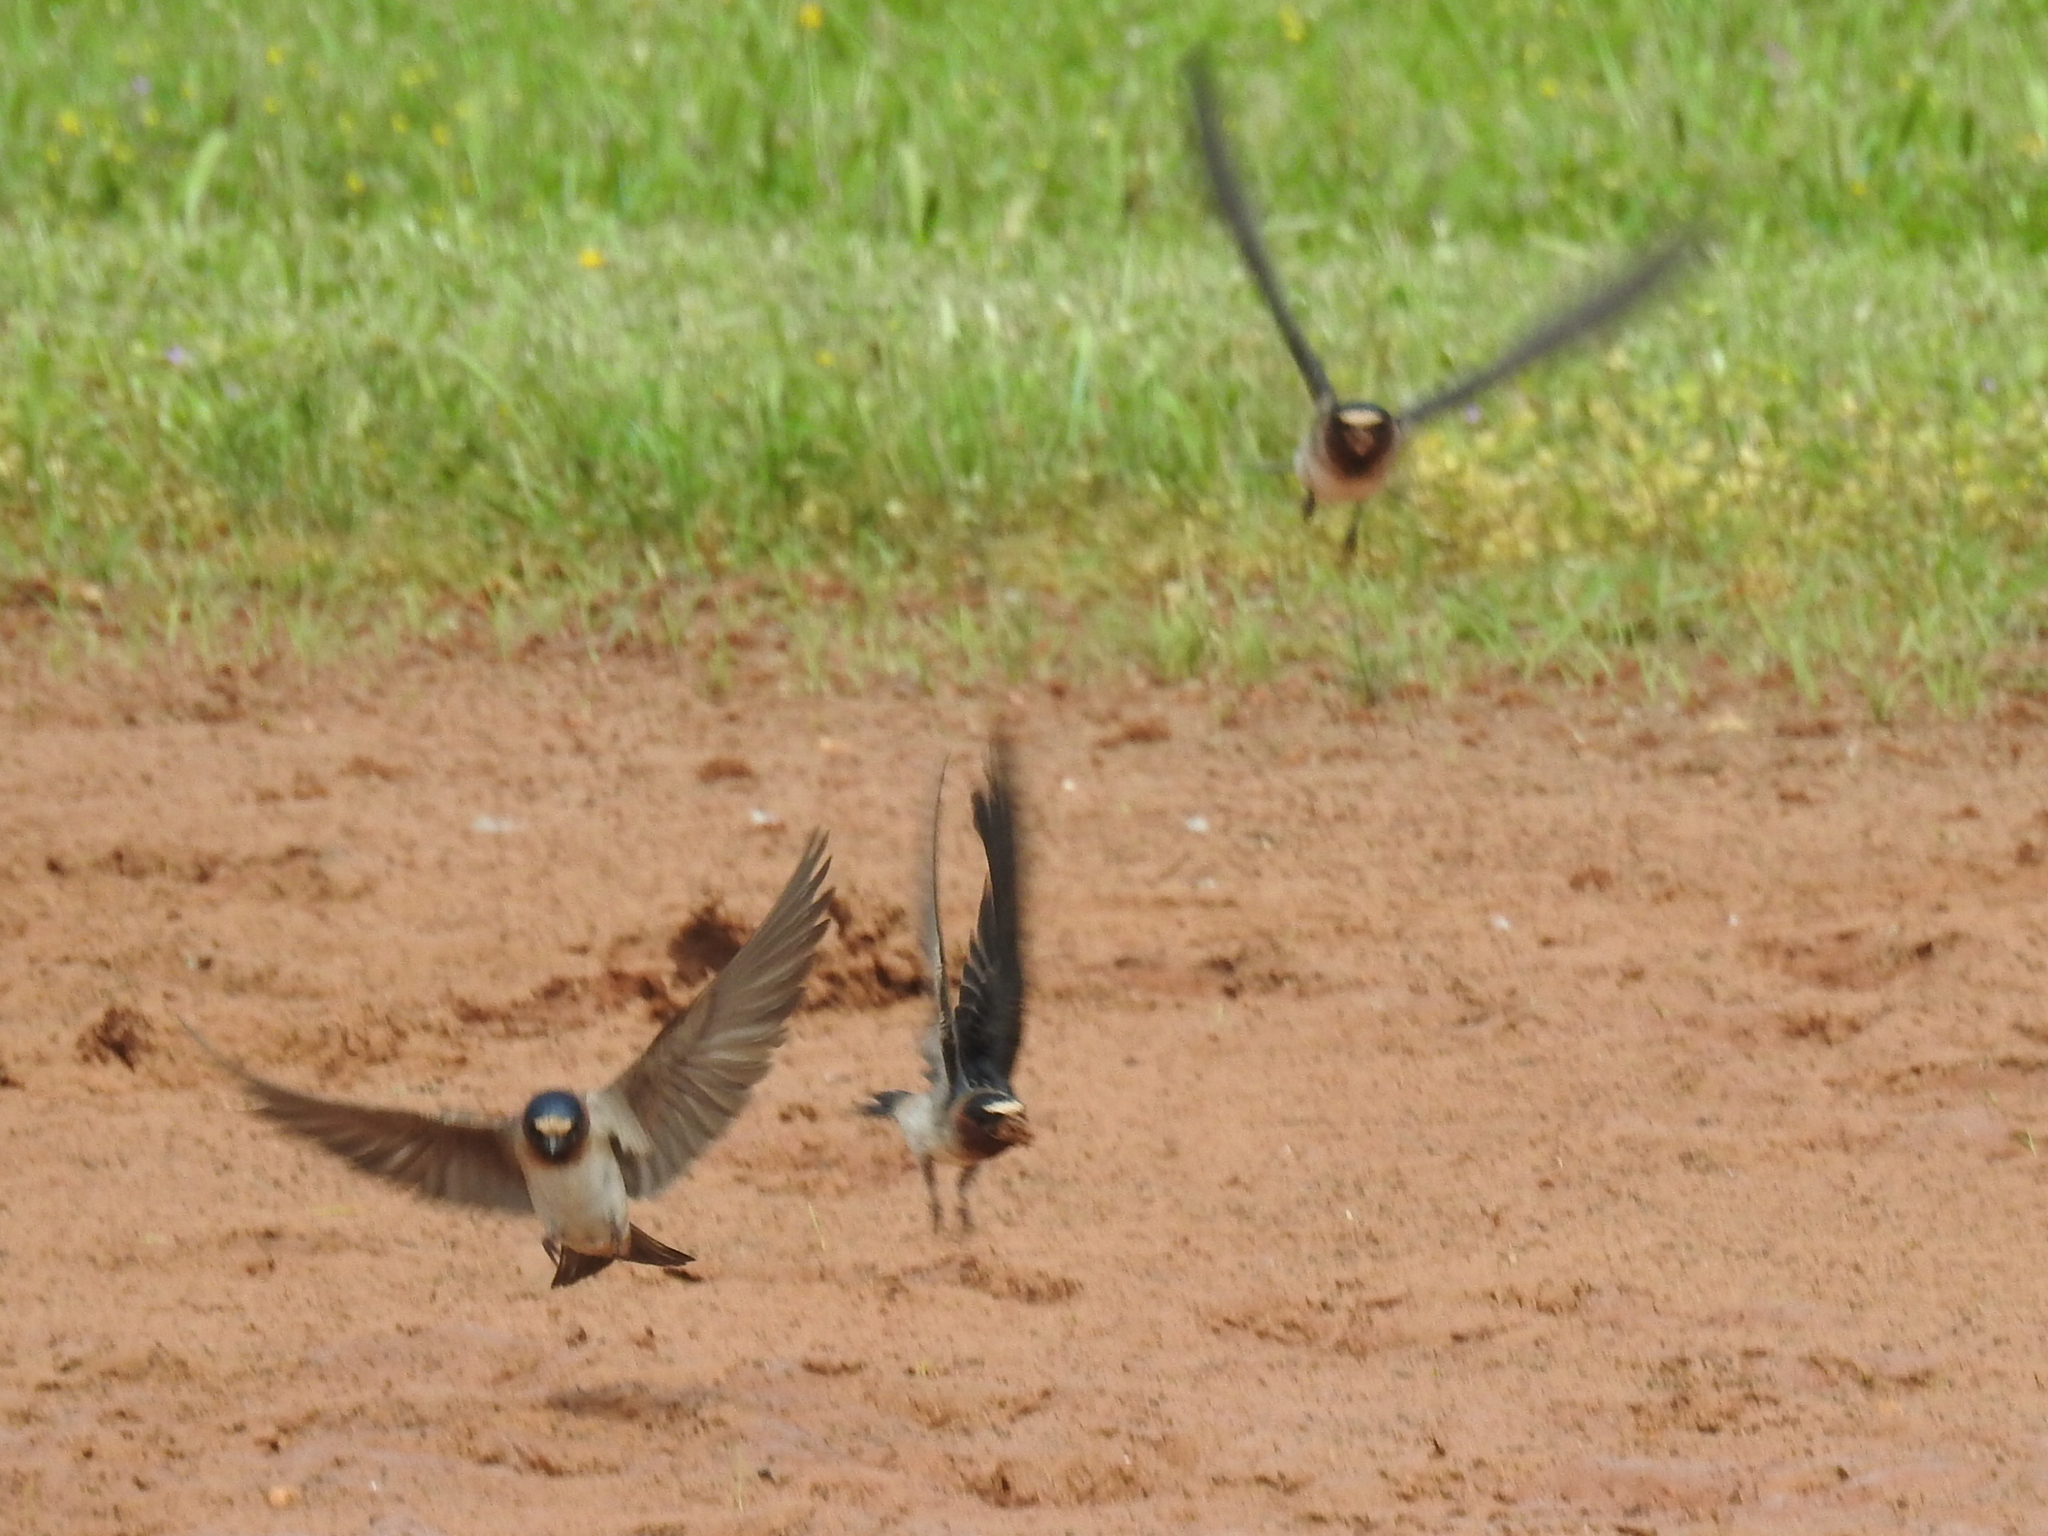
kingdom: Animalia
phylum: Chordata
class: Aves
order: Passeriformes
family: Hirundinidae
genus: Petrochelidon
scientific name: Petrochelidon pyrrhonota
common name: American cliff swallow
